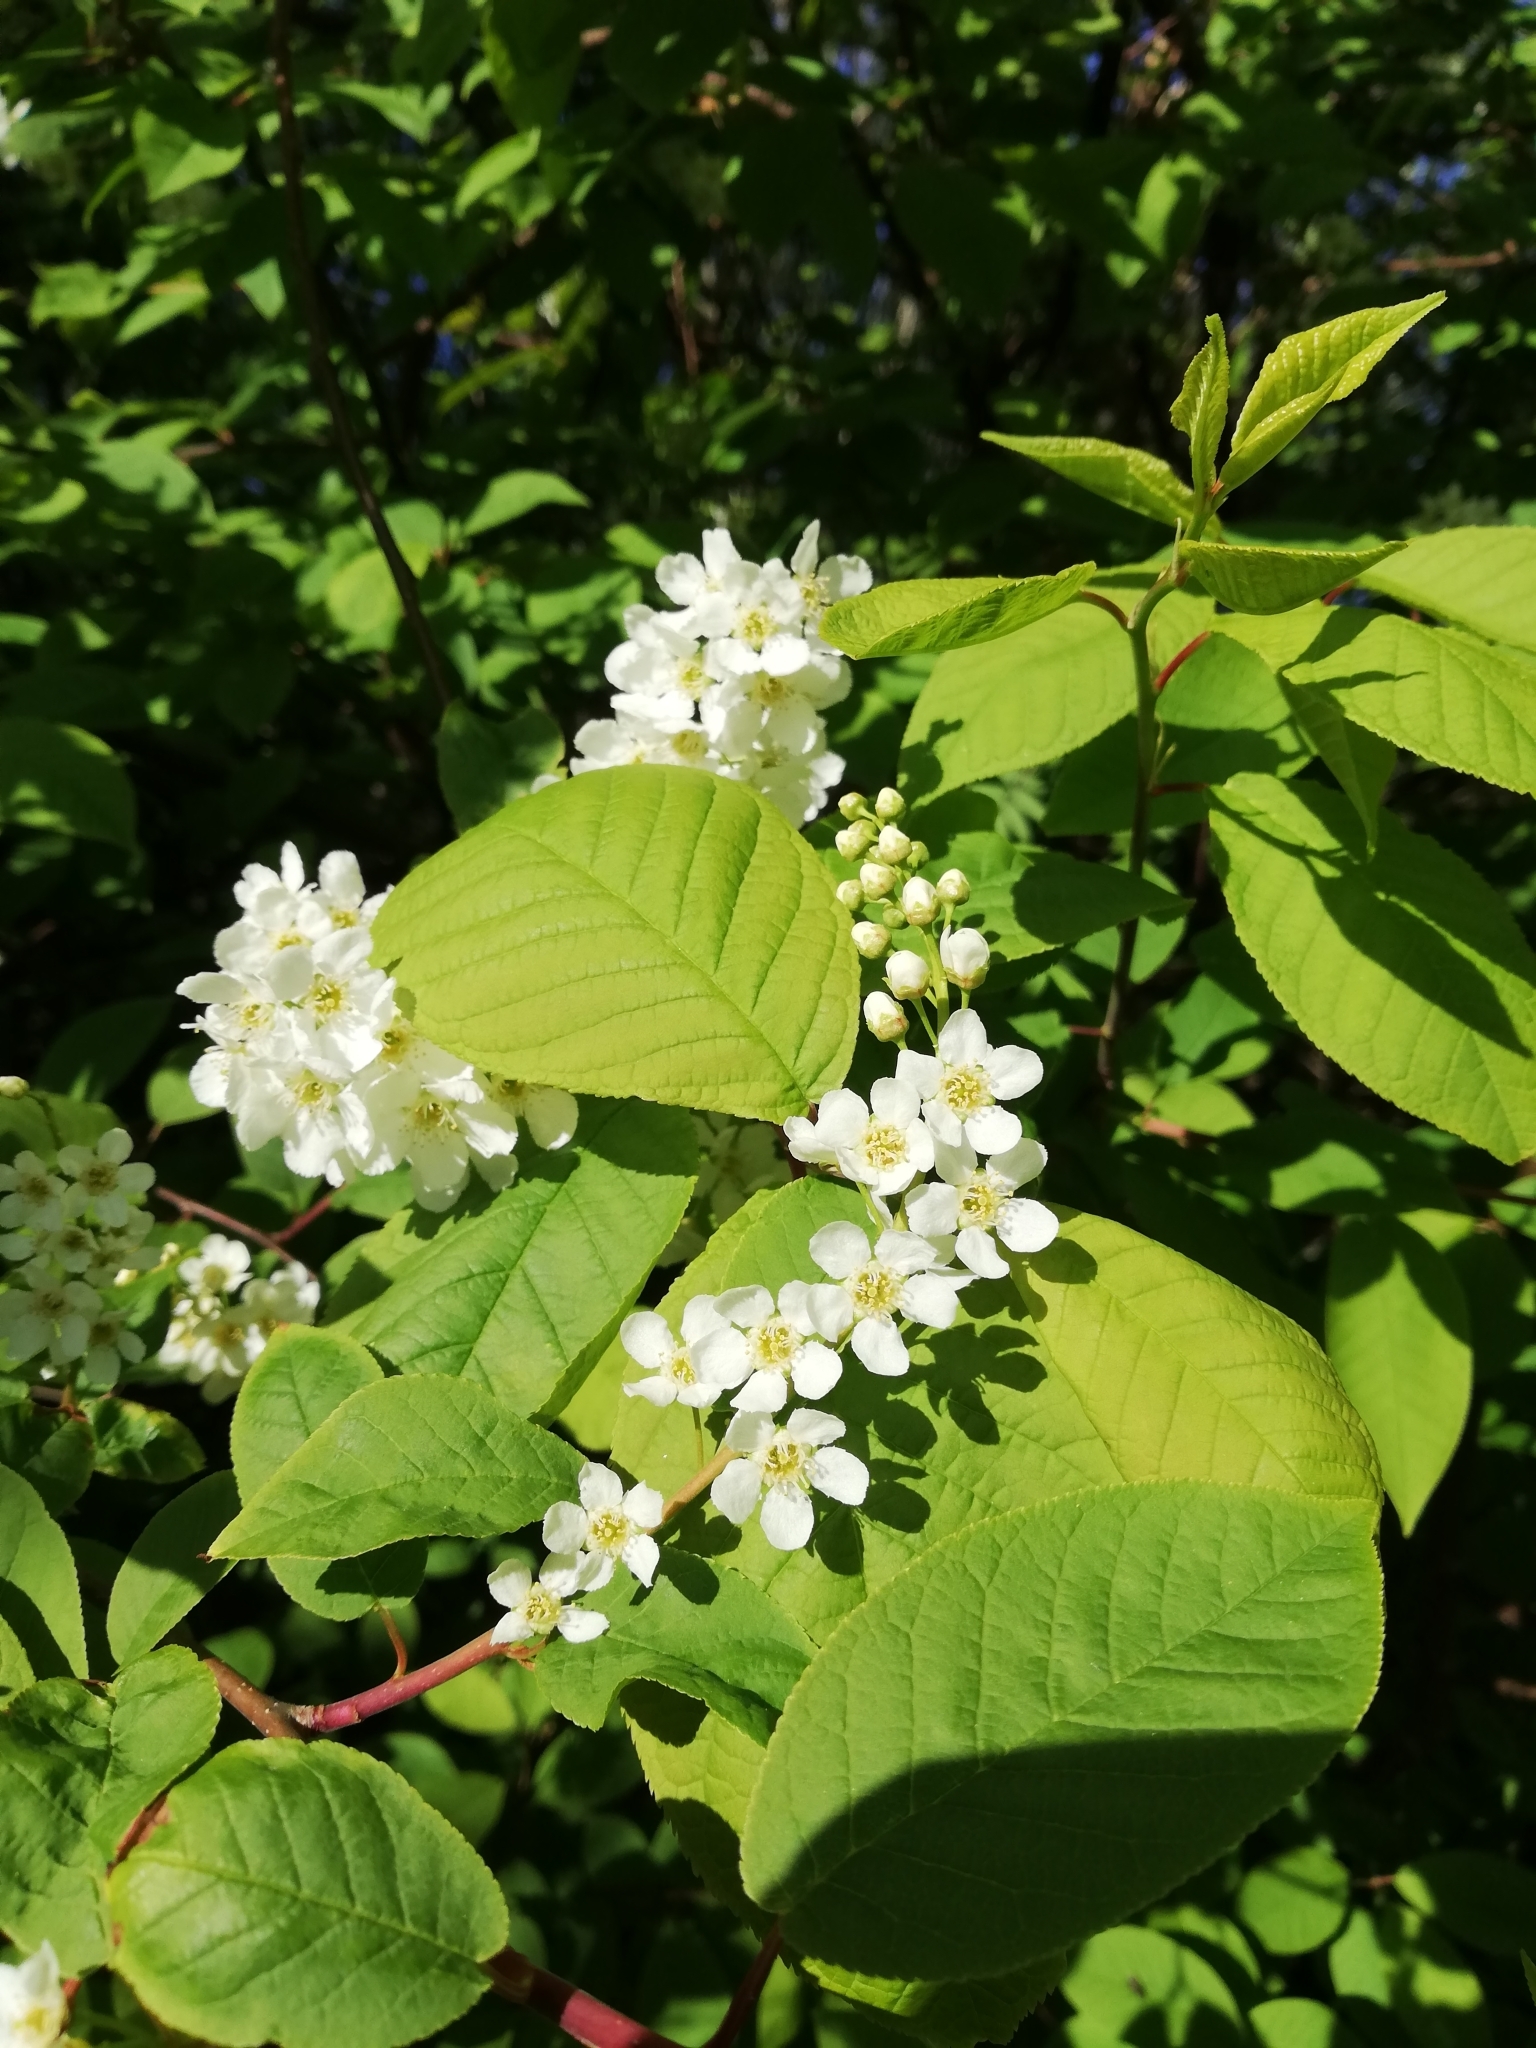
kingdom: Plantae
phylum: Tracheophyta
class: Magnoliopsida
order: Rosales
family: Rosaceae
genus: Prunus
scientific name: Prunus padus
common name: Bird cherry
